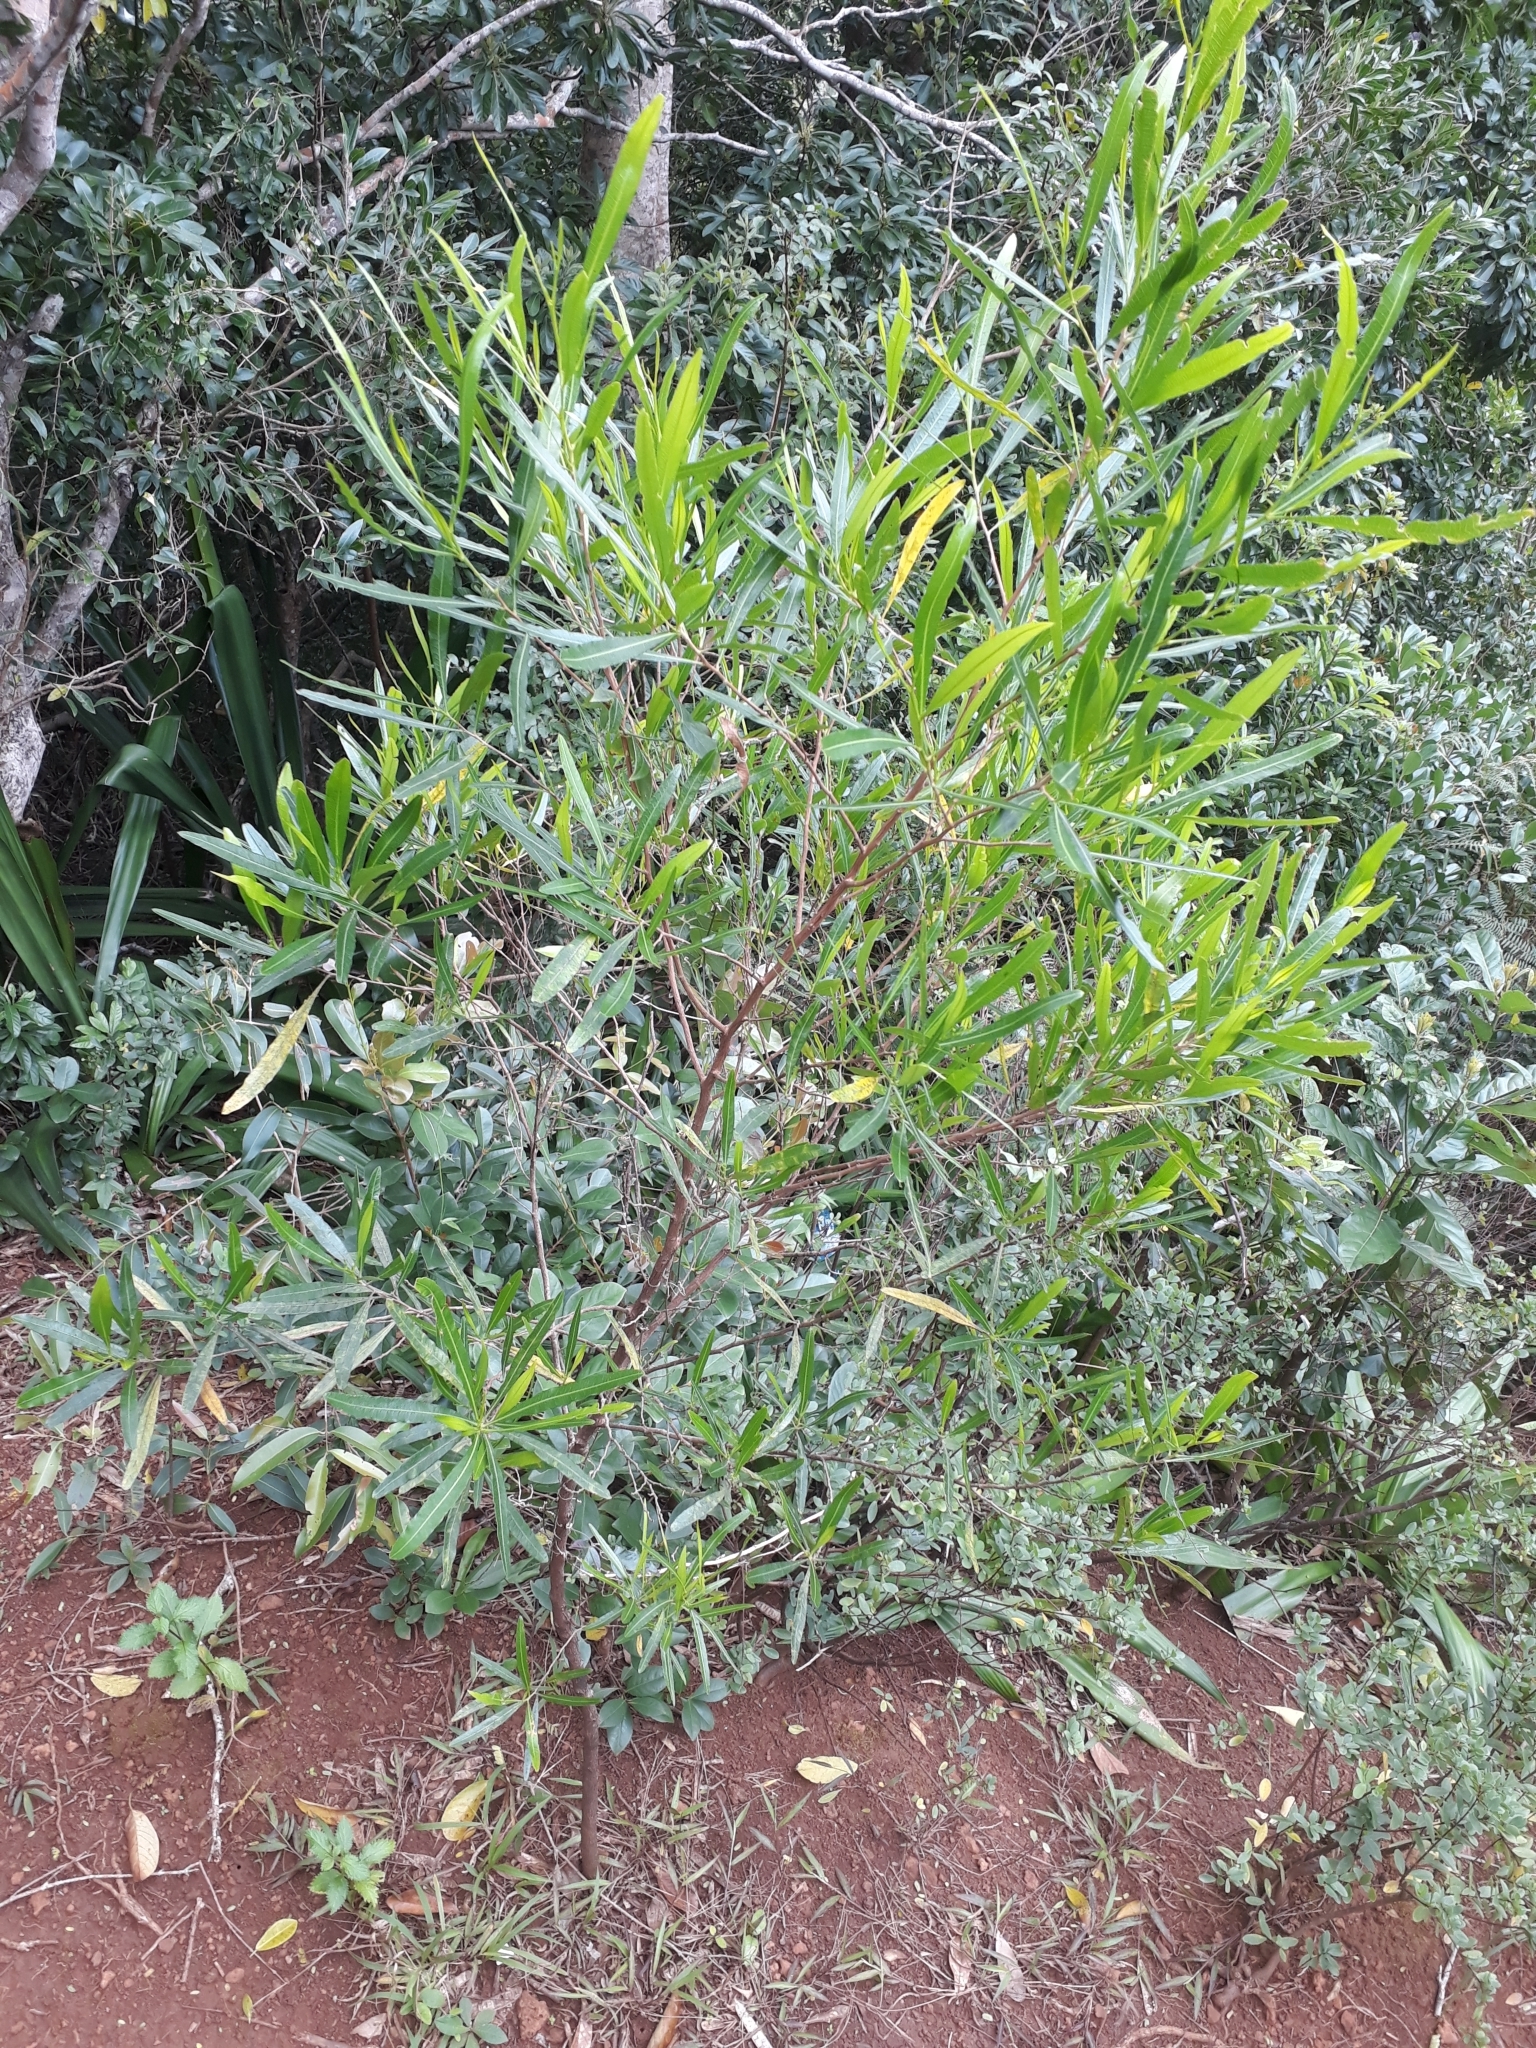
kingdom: Plantae
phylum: Tracheophyta
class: Magnoliopsida
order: Sapindales
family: Sapindaceae
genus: Dodonaea
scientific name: Dodonaea viscosa
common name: Hopbush
